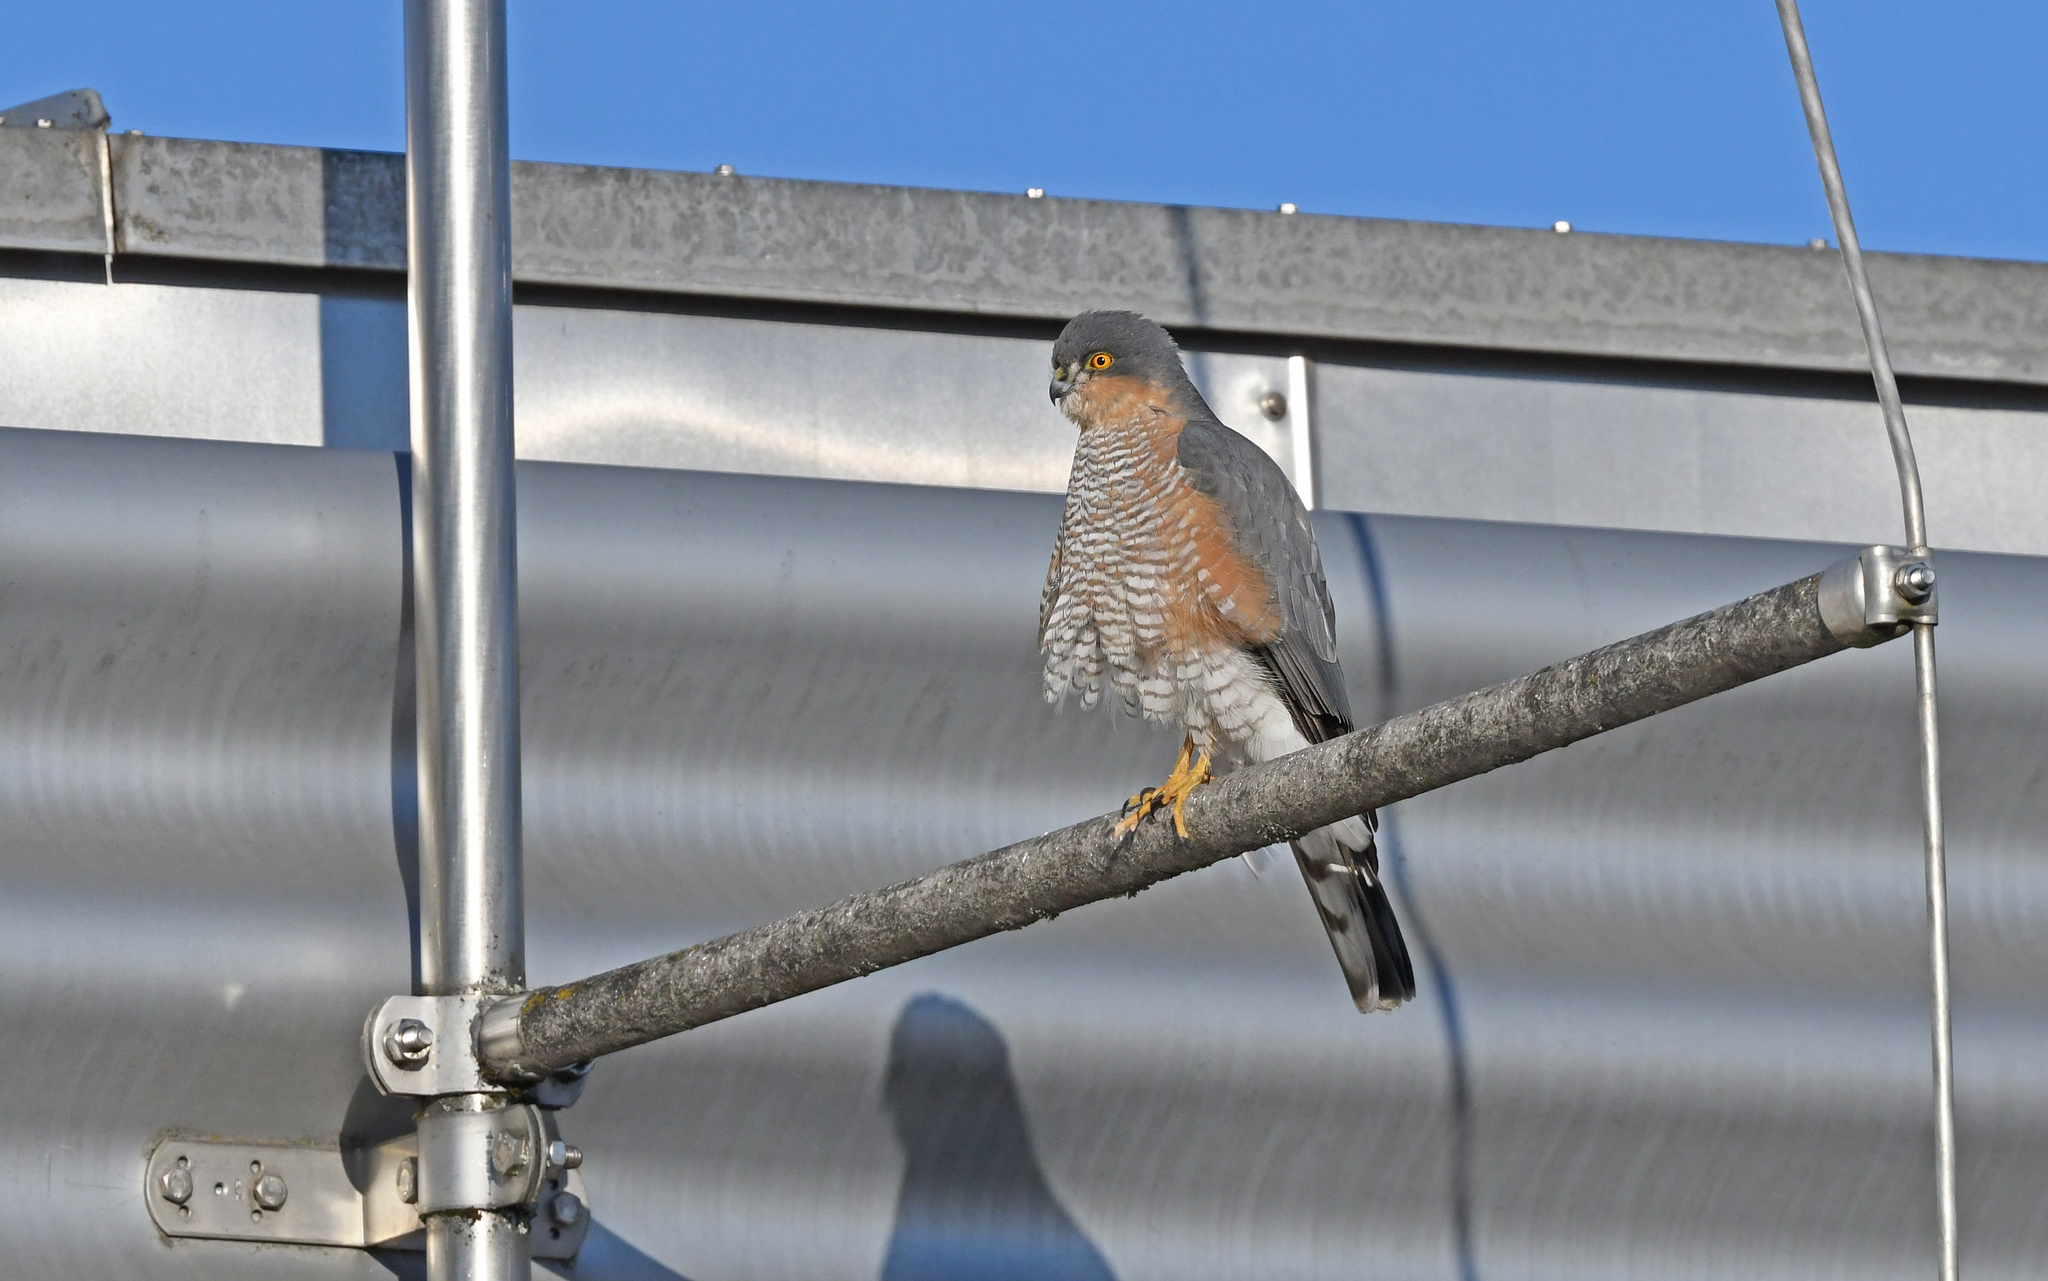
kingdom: Animalia
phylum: Chordata
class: Aves
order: Accipitriformes
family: Accipitridae
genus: Accipiter
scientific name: Accipiter nisus
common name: Eurasian sparrowhawk
